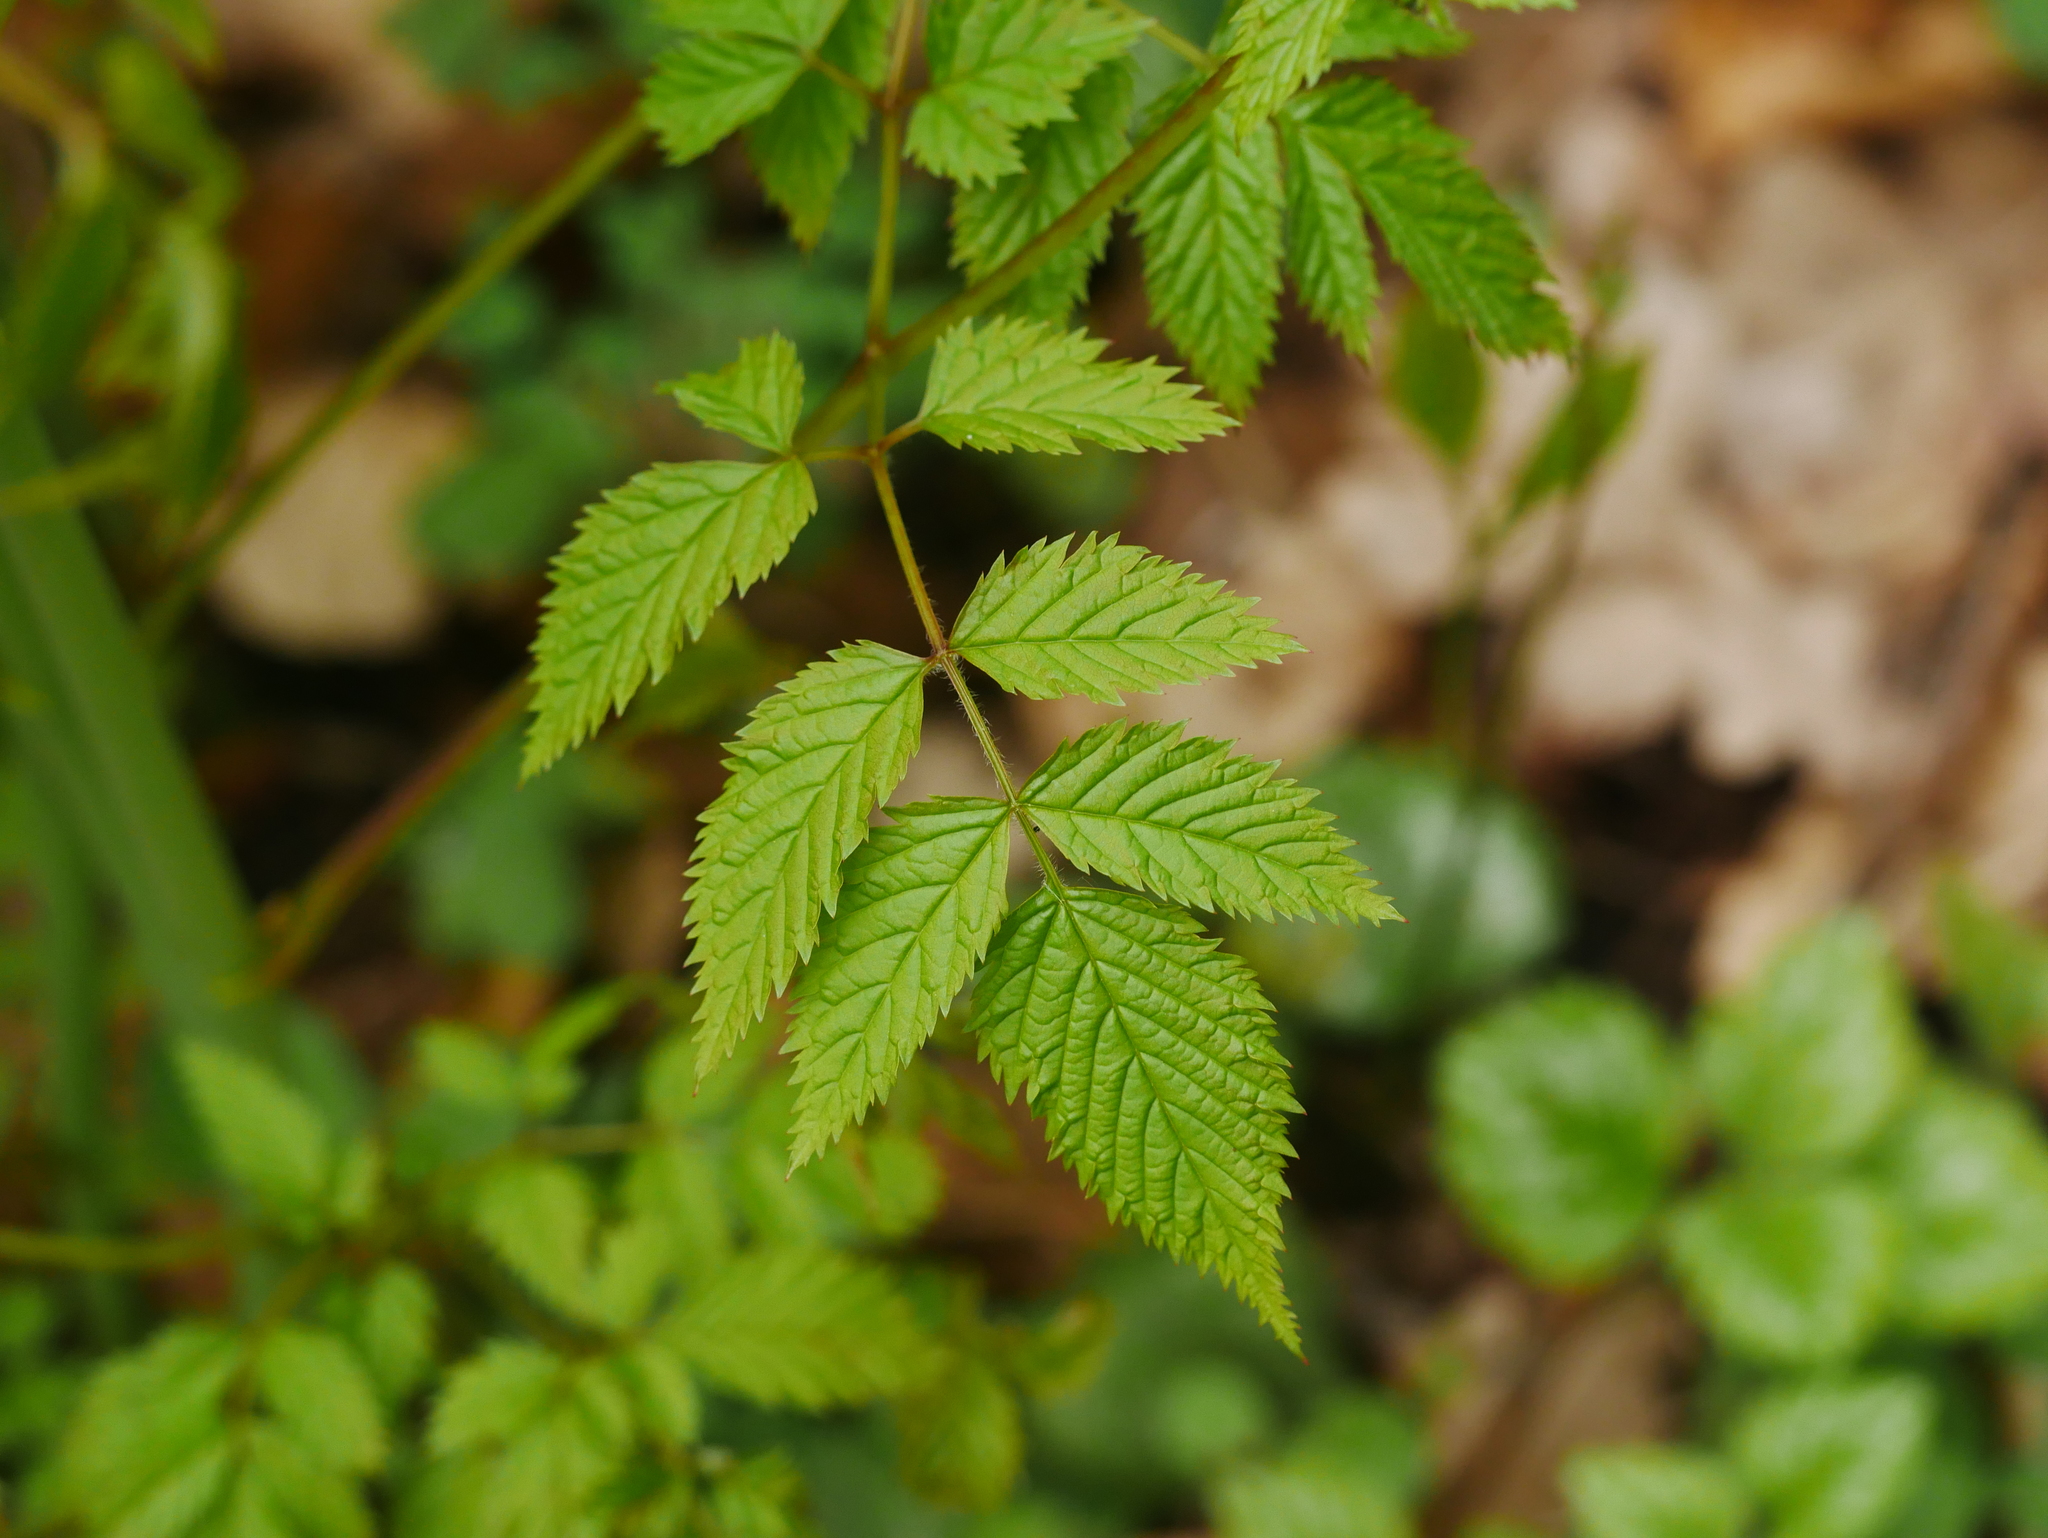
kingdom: Plantae
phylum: Tracheophyta
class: Magnoliopsida
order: Rosales
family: Rosaceae
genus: Aruncus
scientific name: Aruncus dioicus
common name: Buck's-beard
